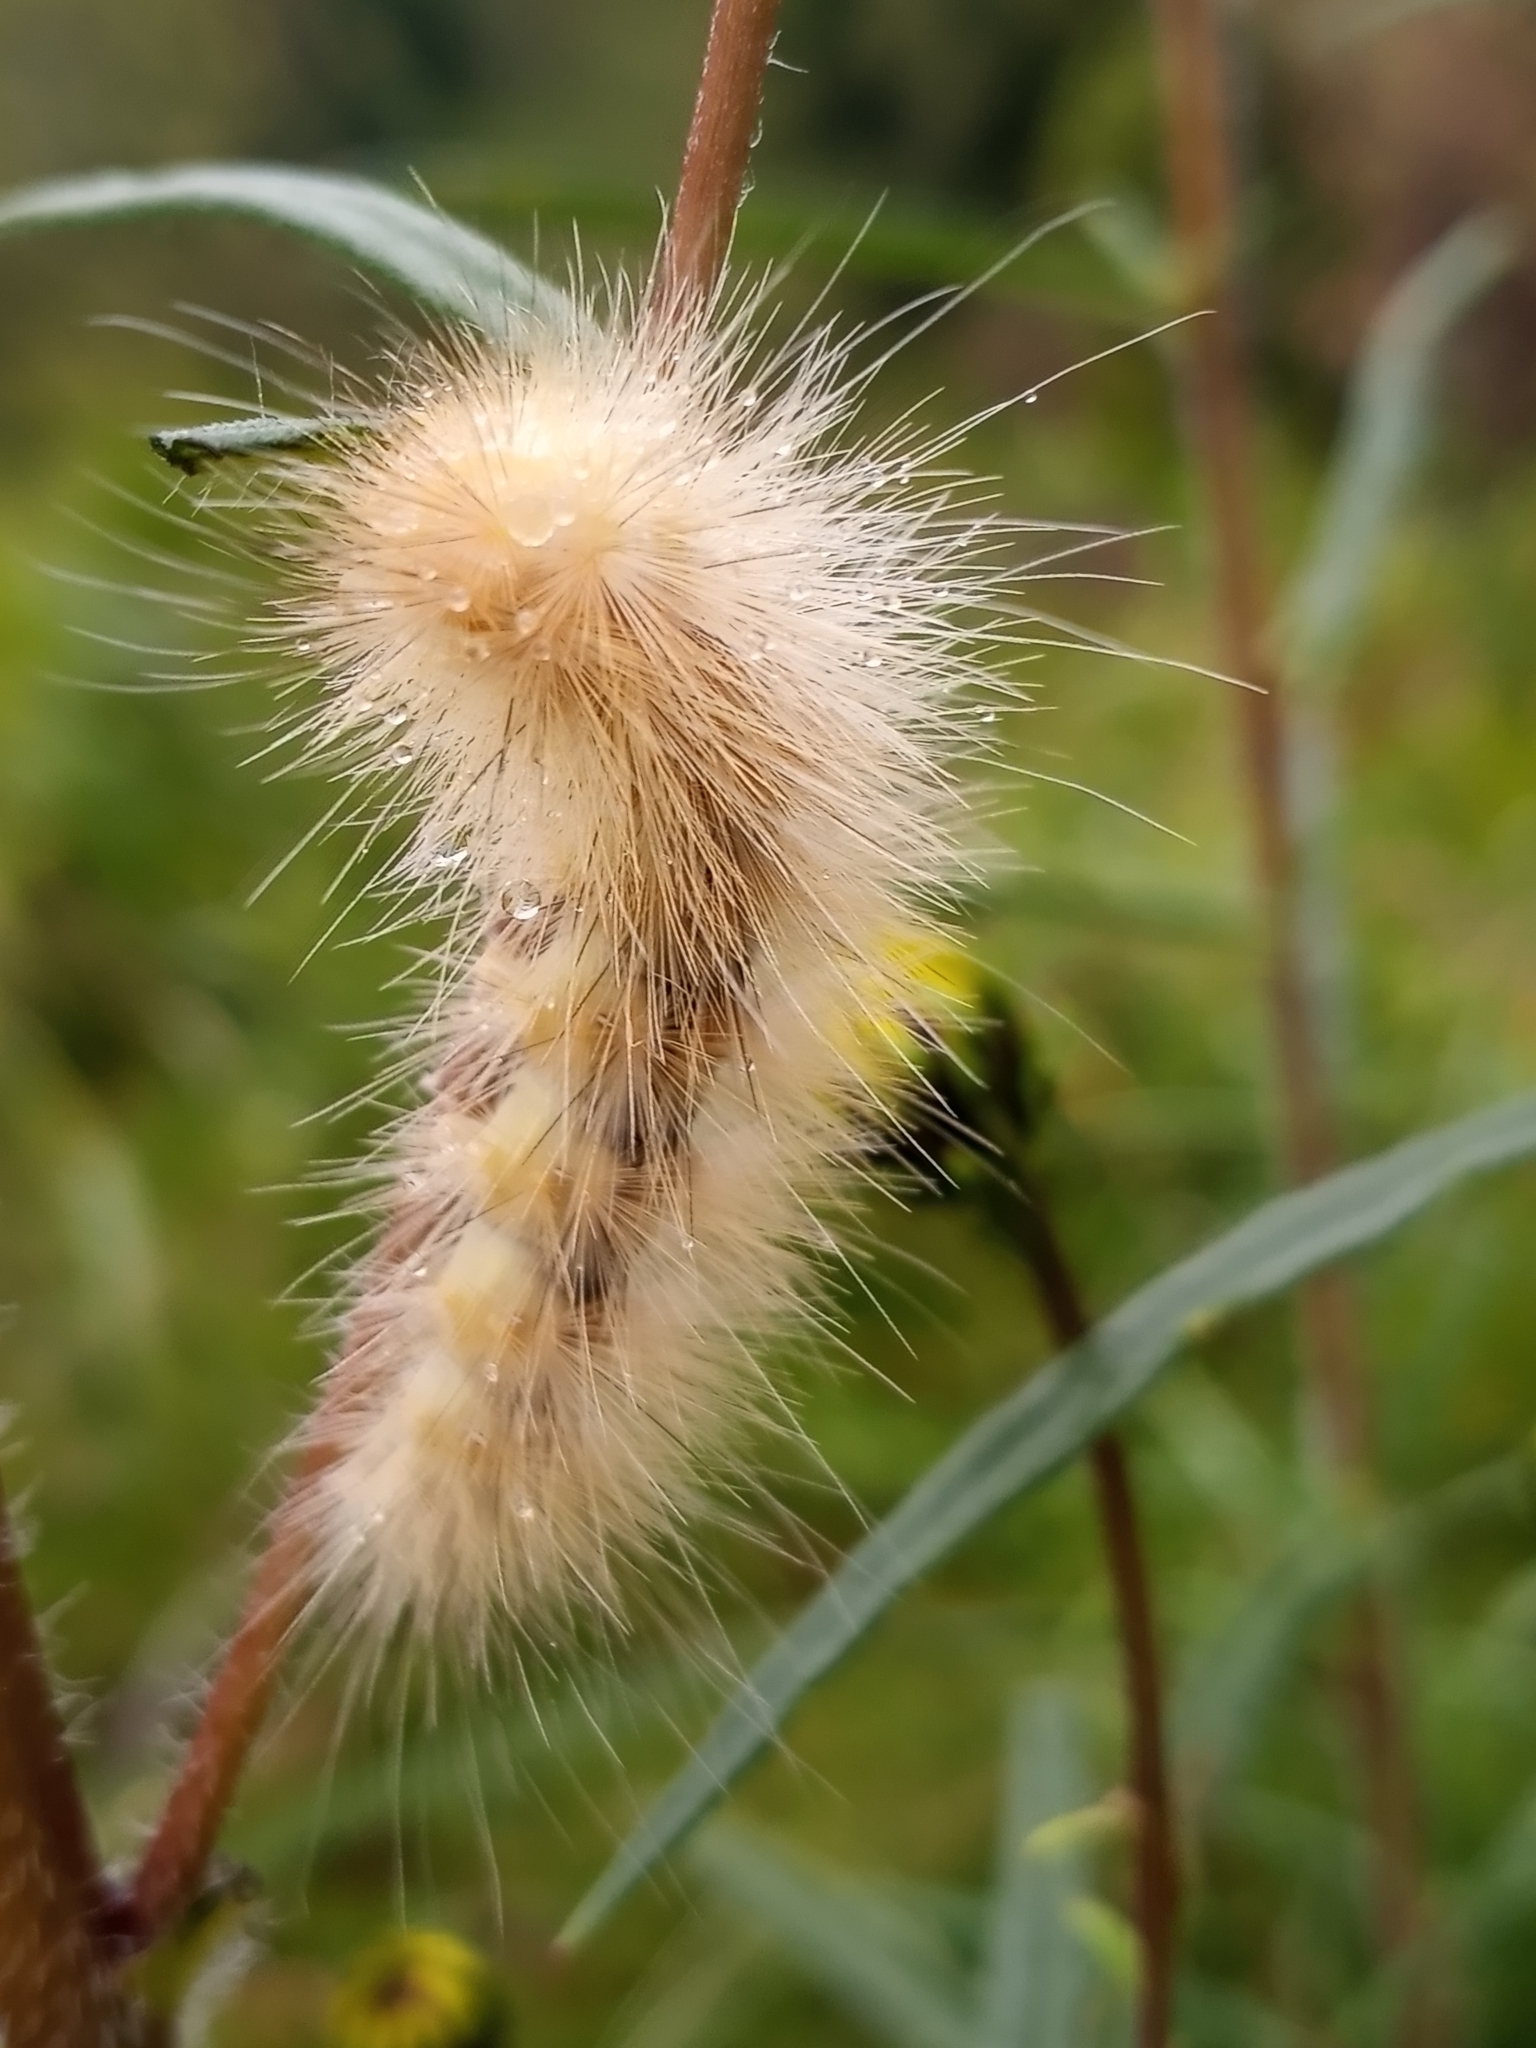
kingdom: Animalia
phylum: Arthropoda
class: Insecta
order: Lepidoptera
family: Erebidae
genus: Spilosoma
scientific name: Spilosoma virginica
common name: Virginia tiger moth
